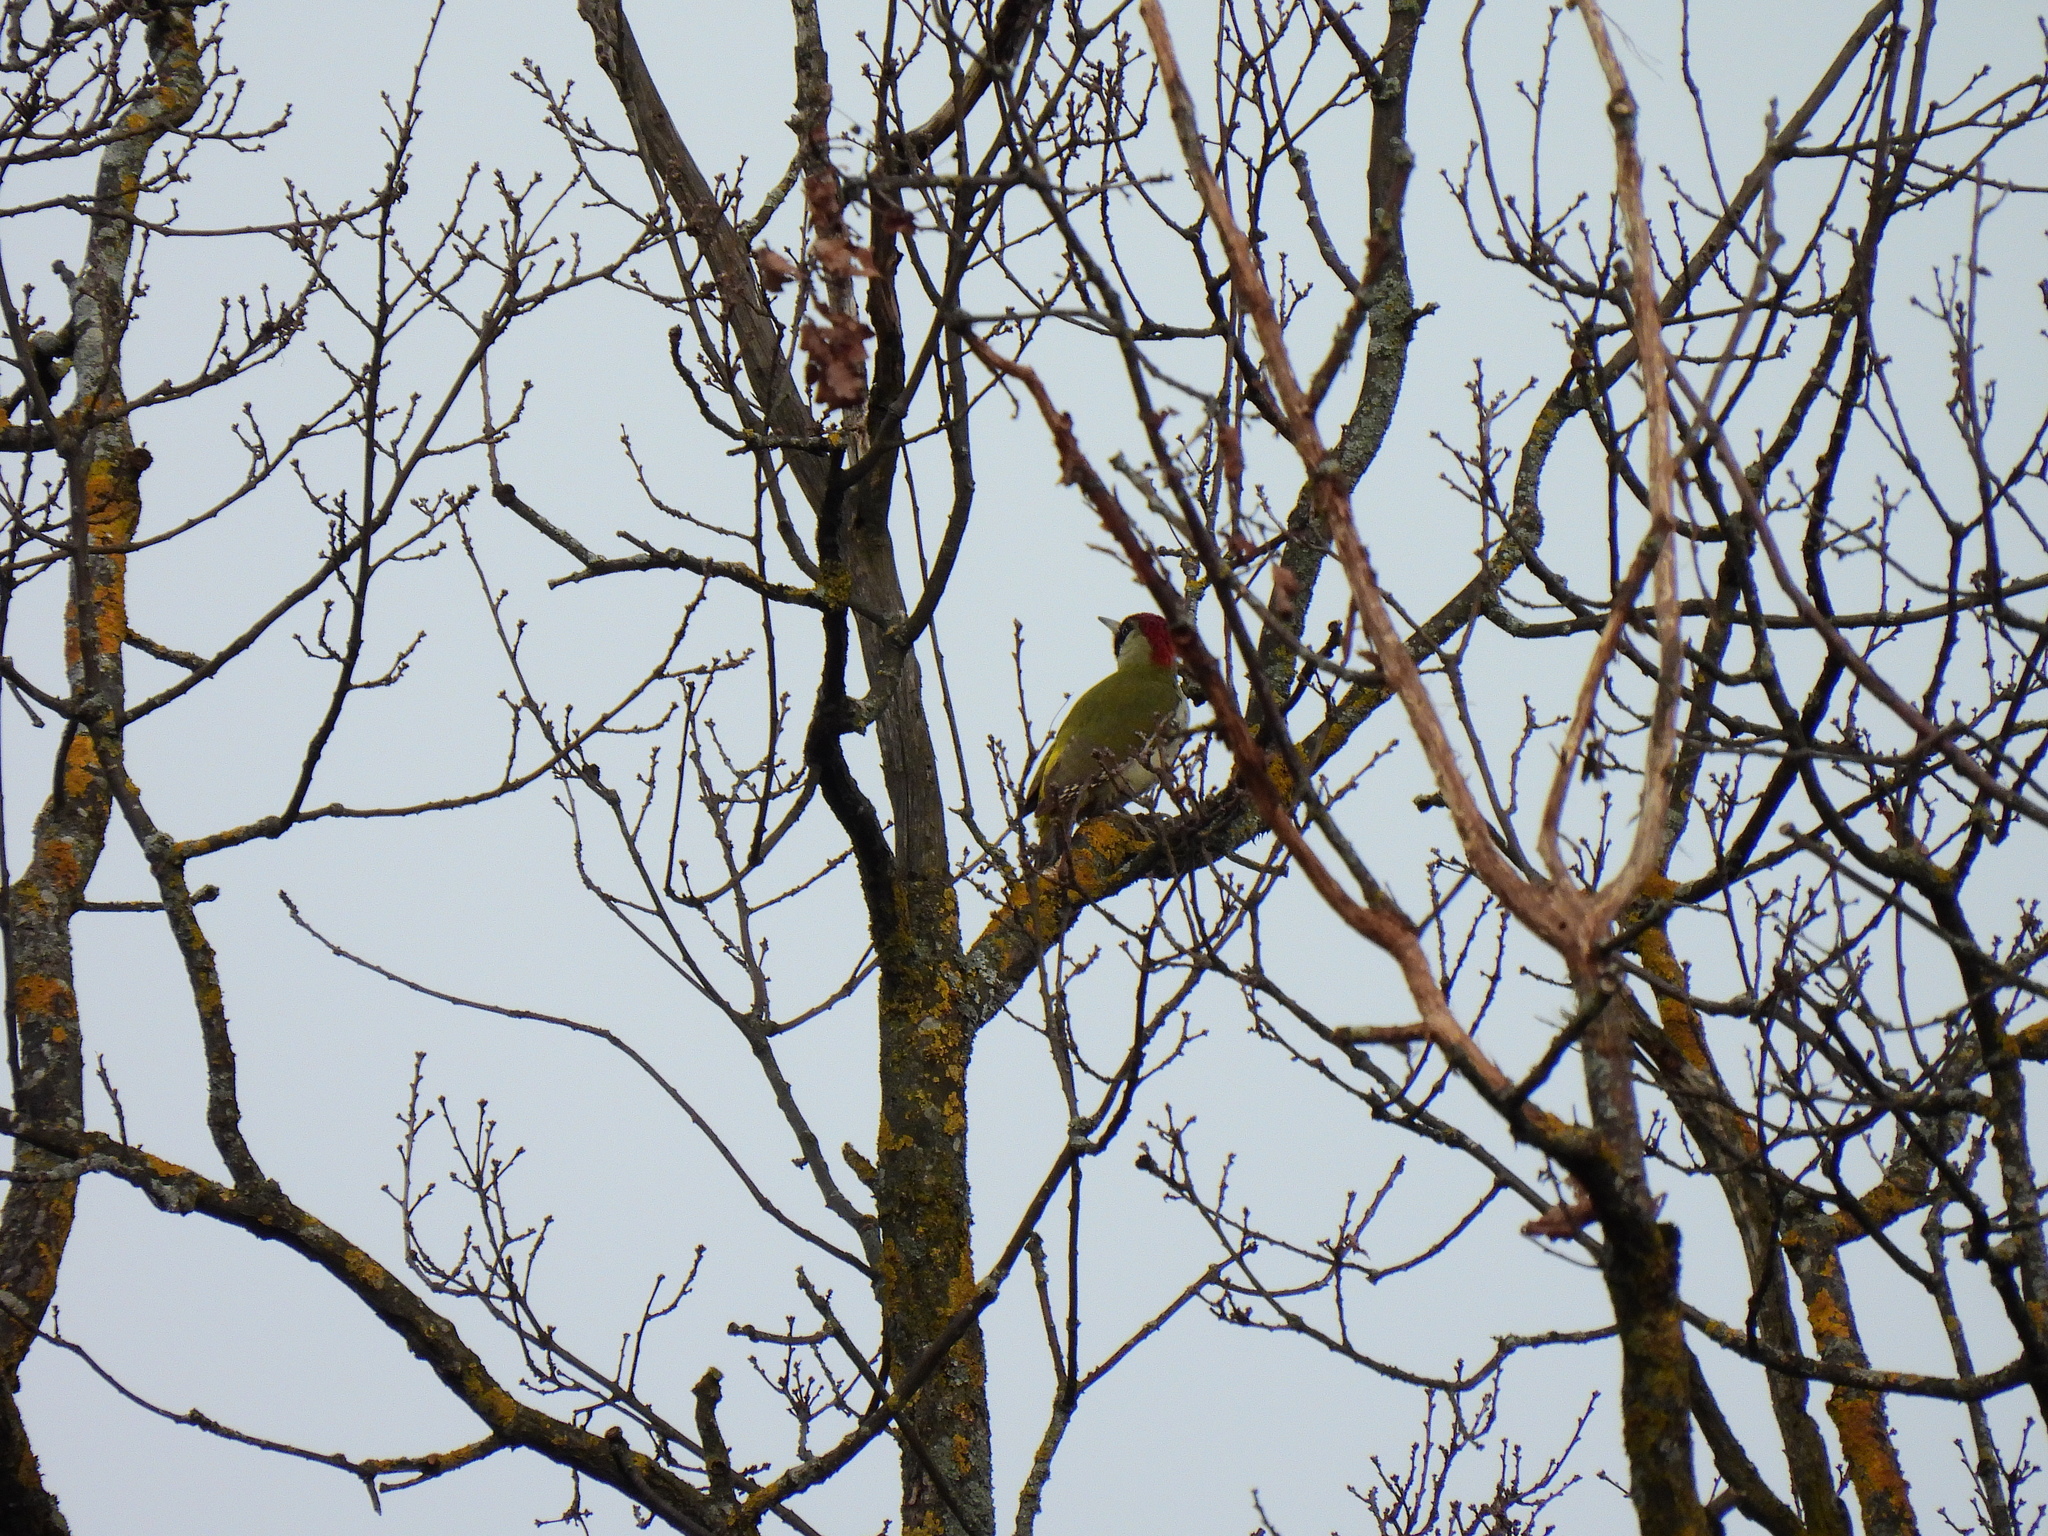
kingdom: Animalia
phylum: Chordata
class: Aves
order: Piciformes
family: Picidae
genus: Picus
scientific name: Picus viridis
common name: European green woodpecker
